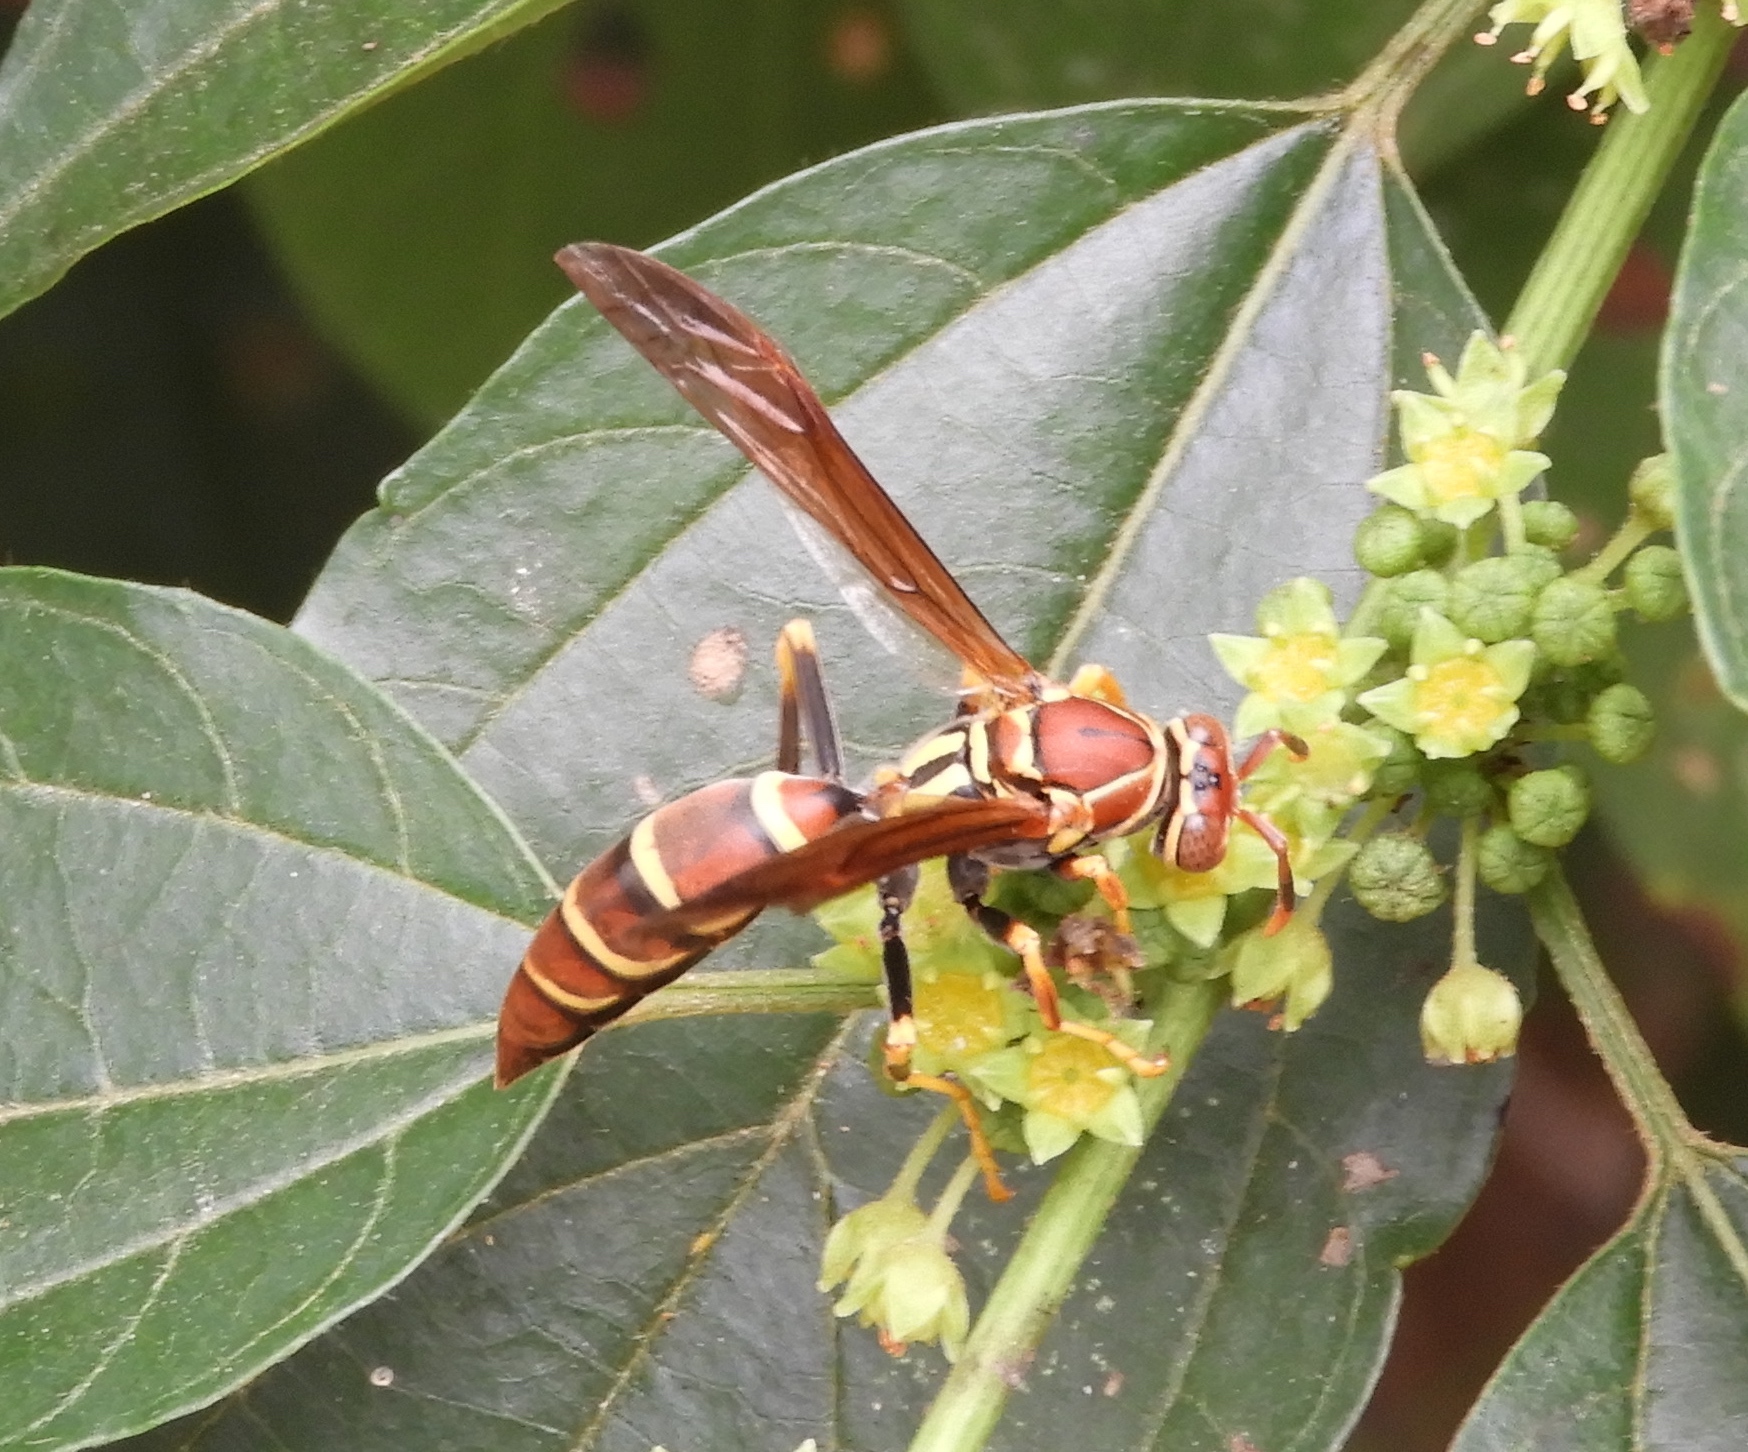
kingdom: Animalia
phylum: Arthropoda
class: Insecta
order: Hymenoptera
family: Eumenidae
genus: Polistes
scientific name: Polistes instabilis
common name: Unstable paper wasp
